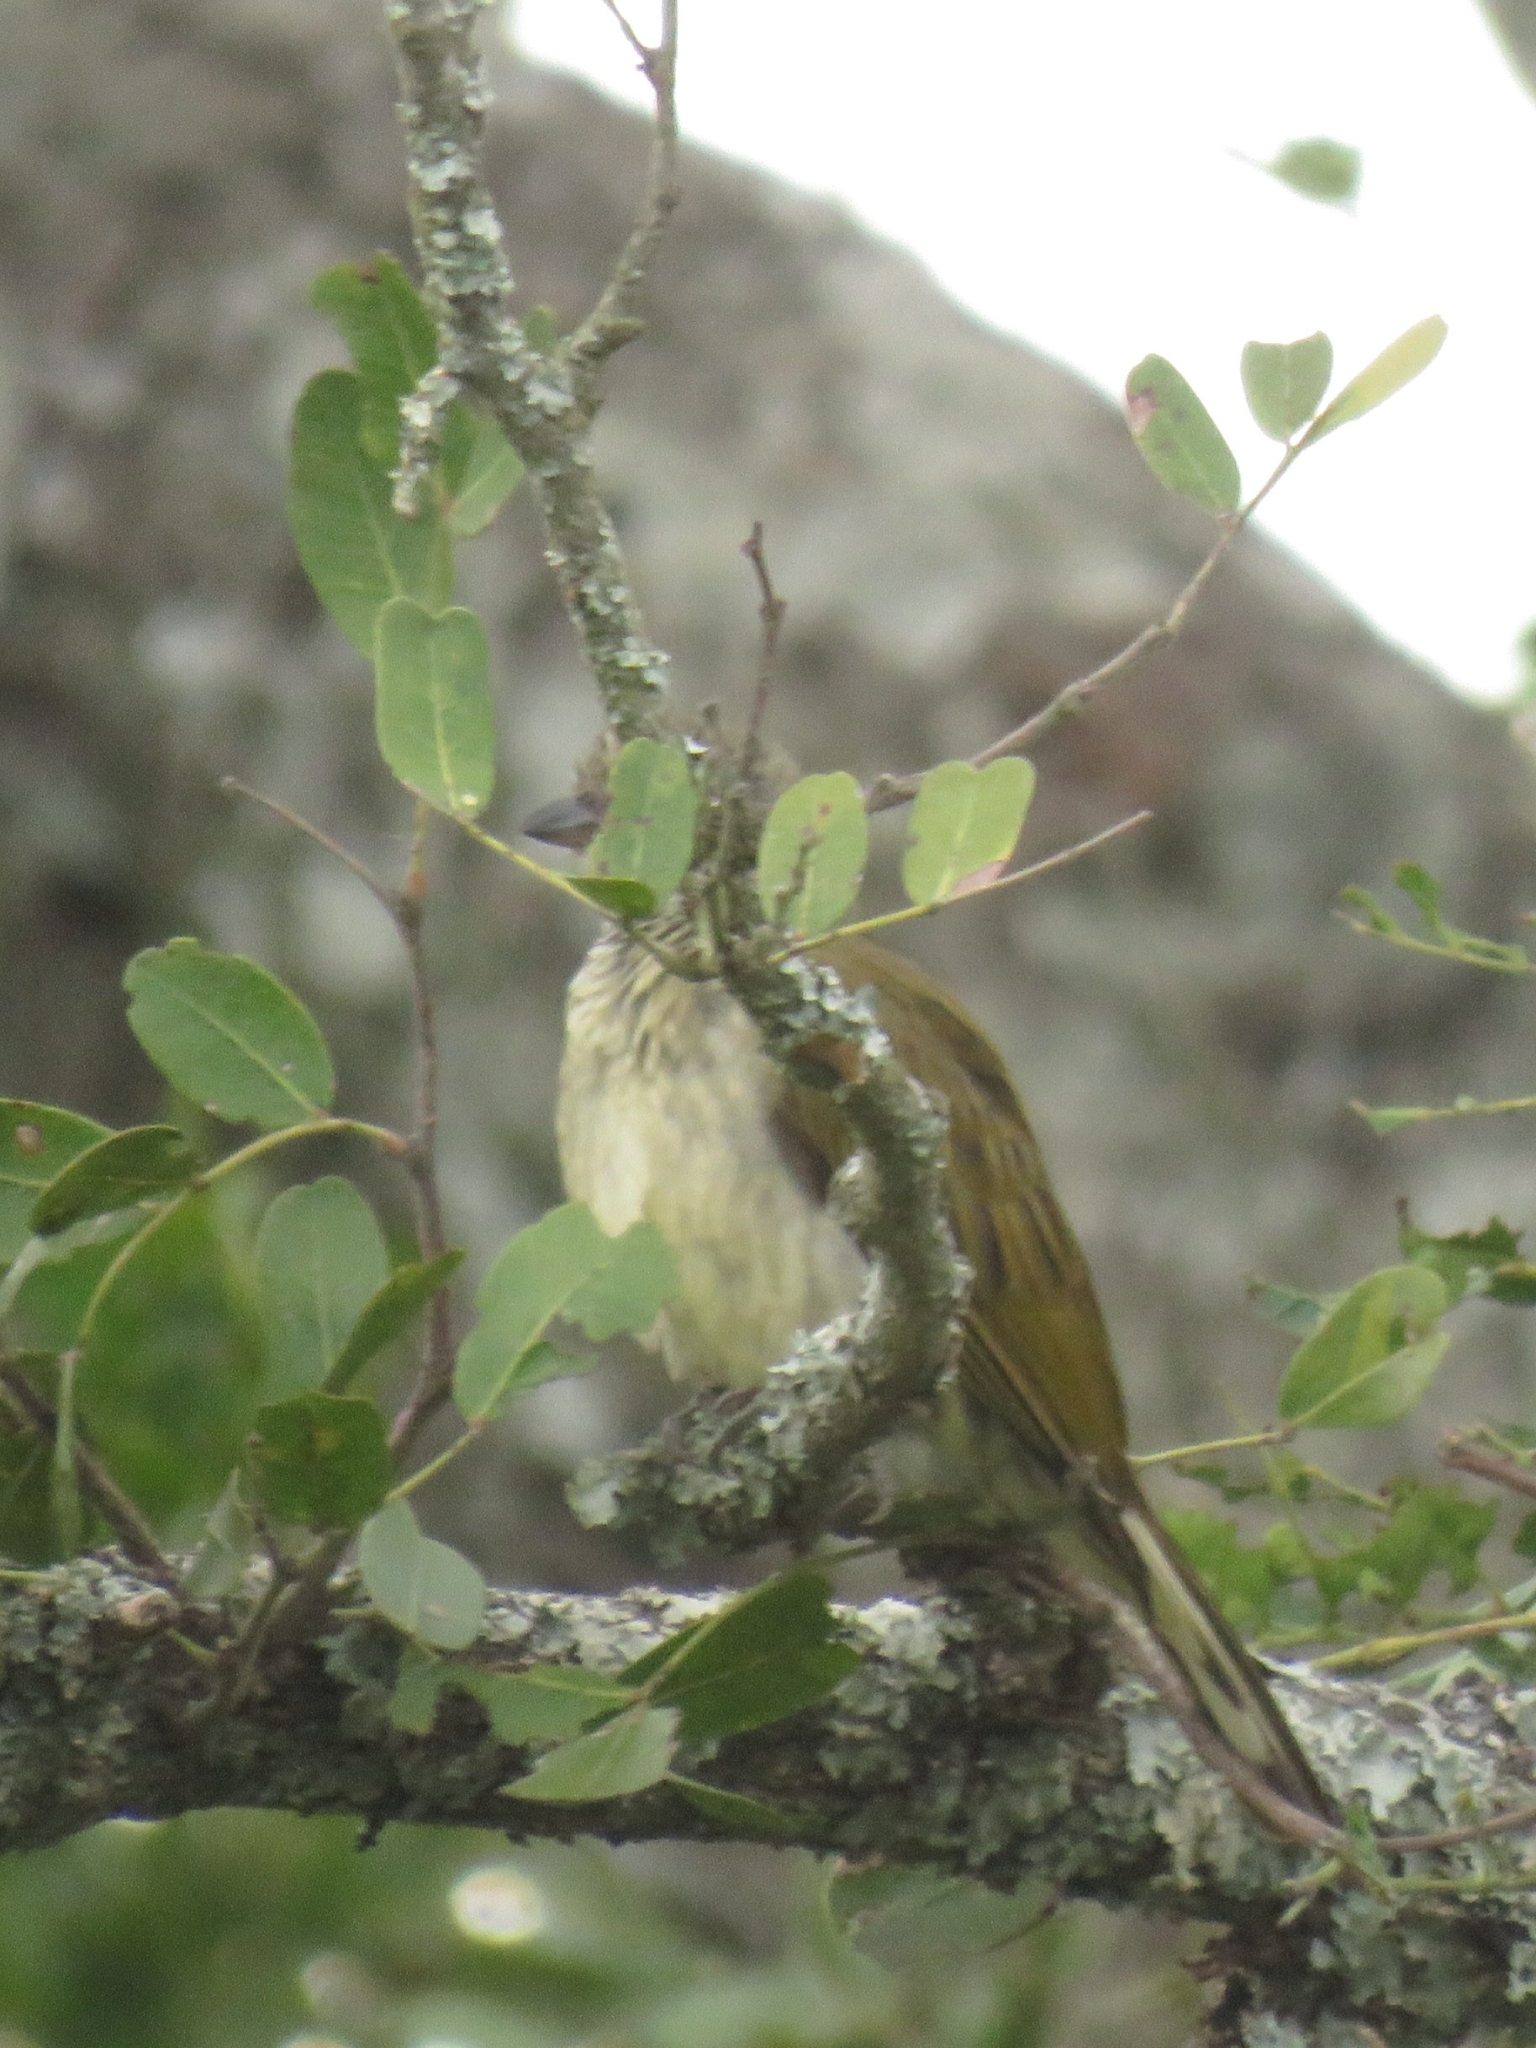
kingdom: Animalia
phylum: Chordata
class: Aves
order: Piciformes
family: Indicatoridae
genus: Indicator
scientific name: Indicator variegatus
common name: Scaly-throated honeyguide
